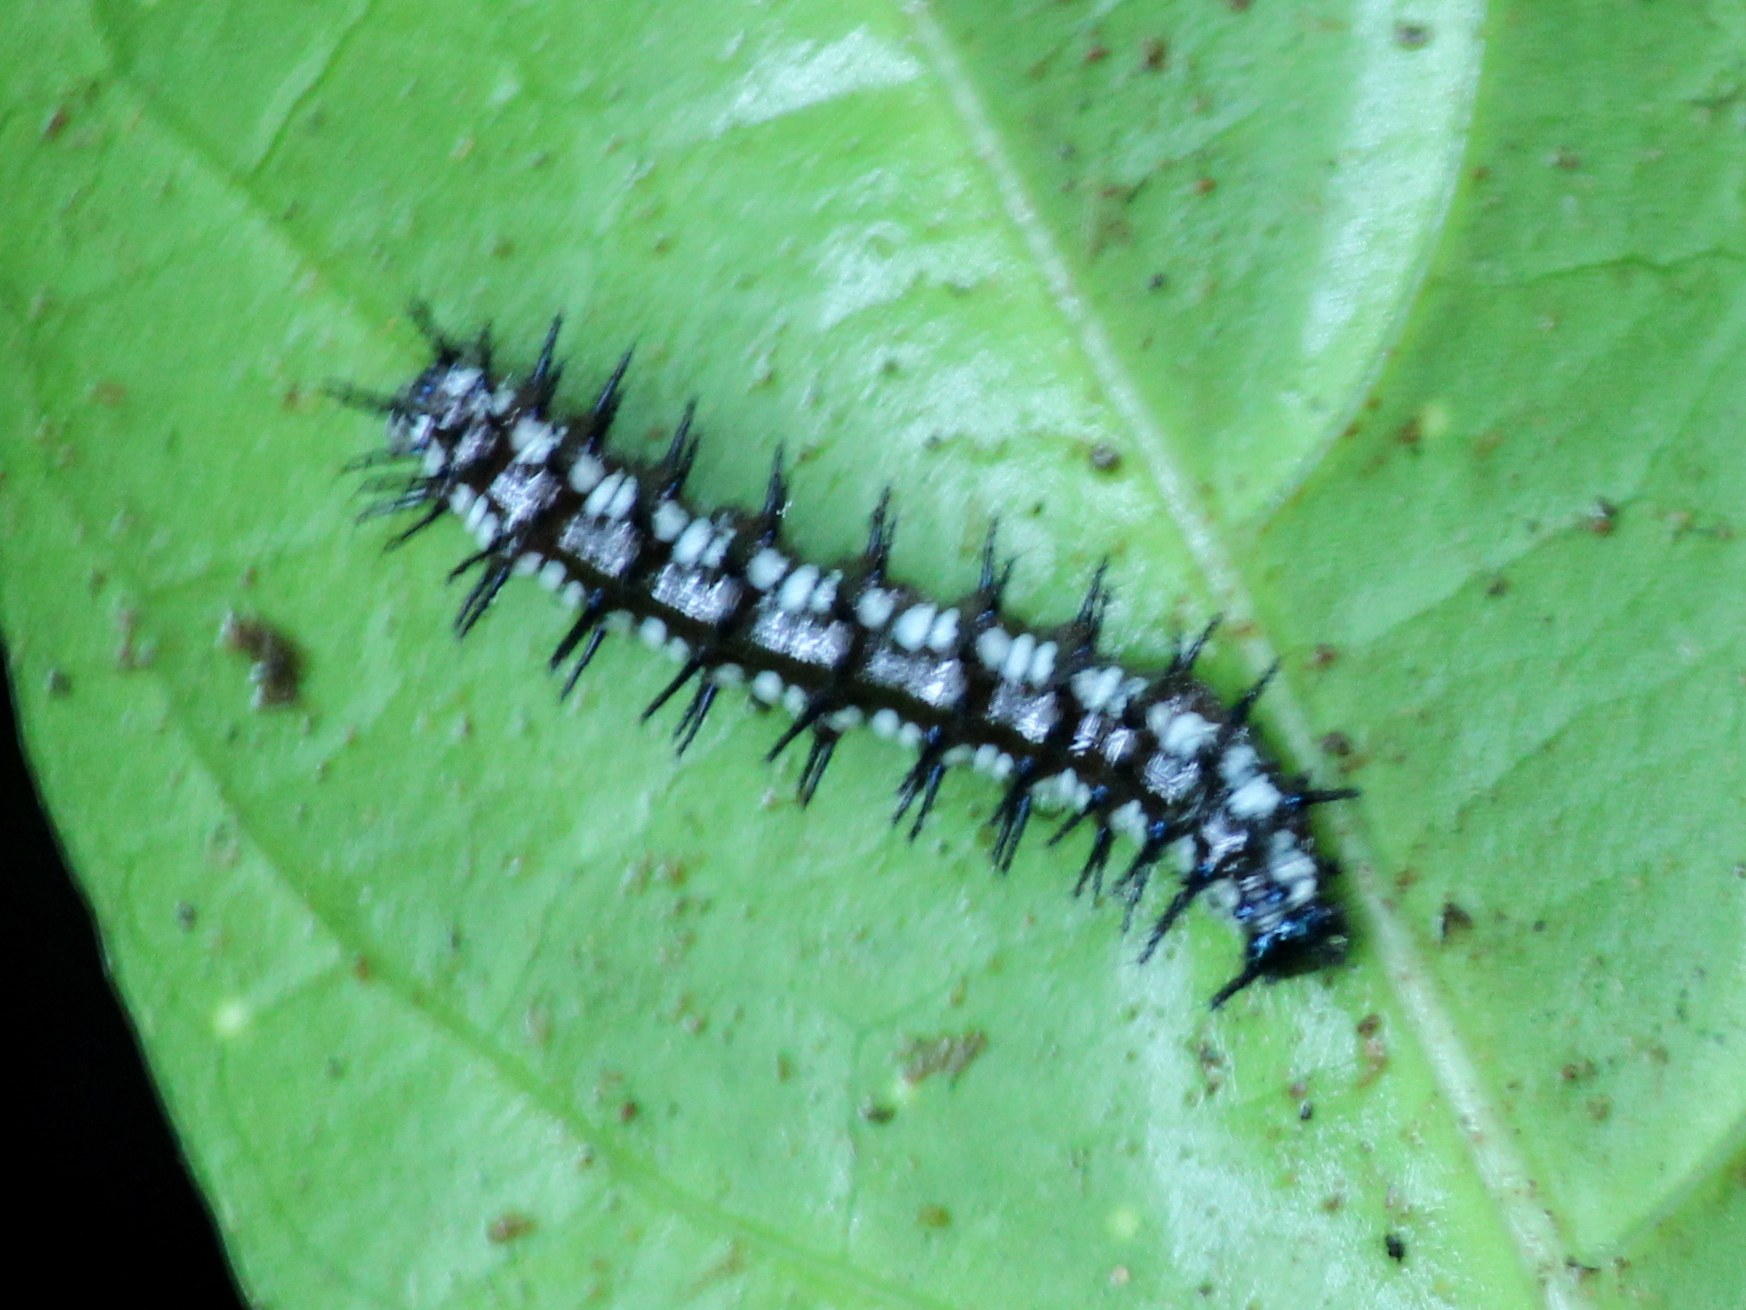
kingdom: Animalia
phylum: Arthropoda
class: Insecta
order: Lepidoptera
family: Nymphalidae
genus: Doleschallia
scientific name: Doleschallia bisaltide
